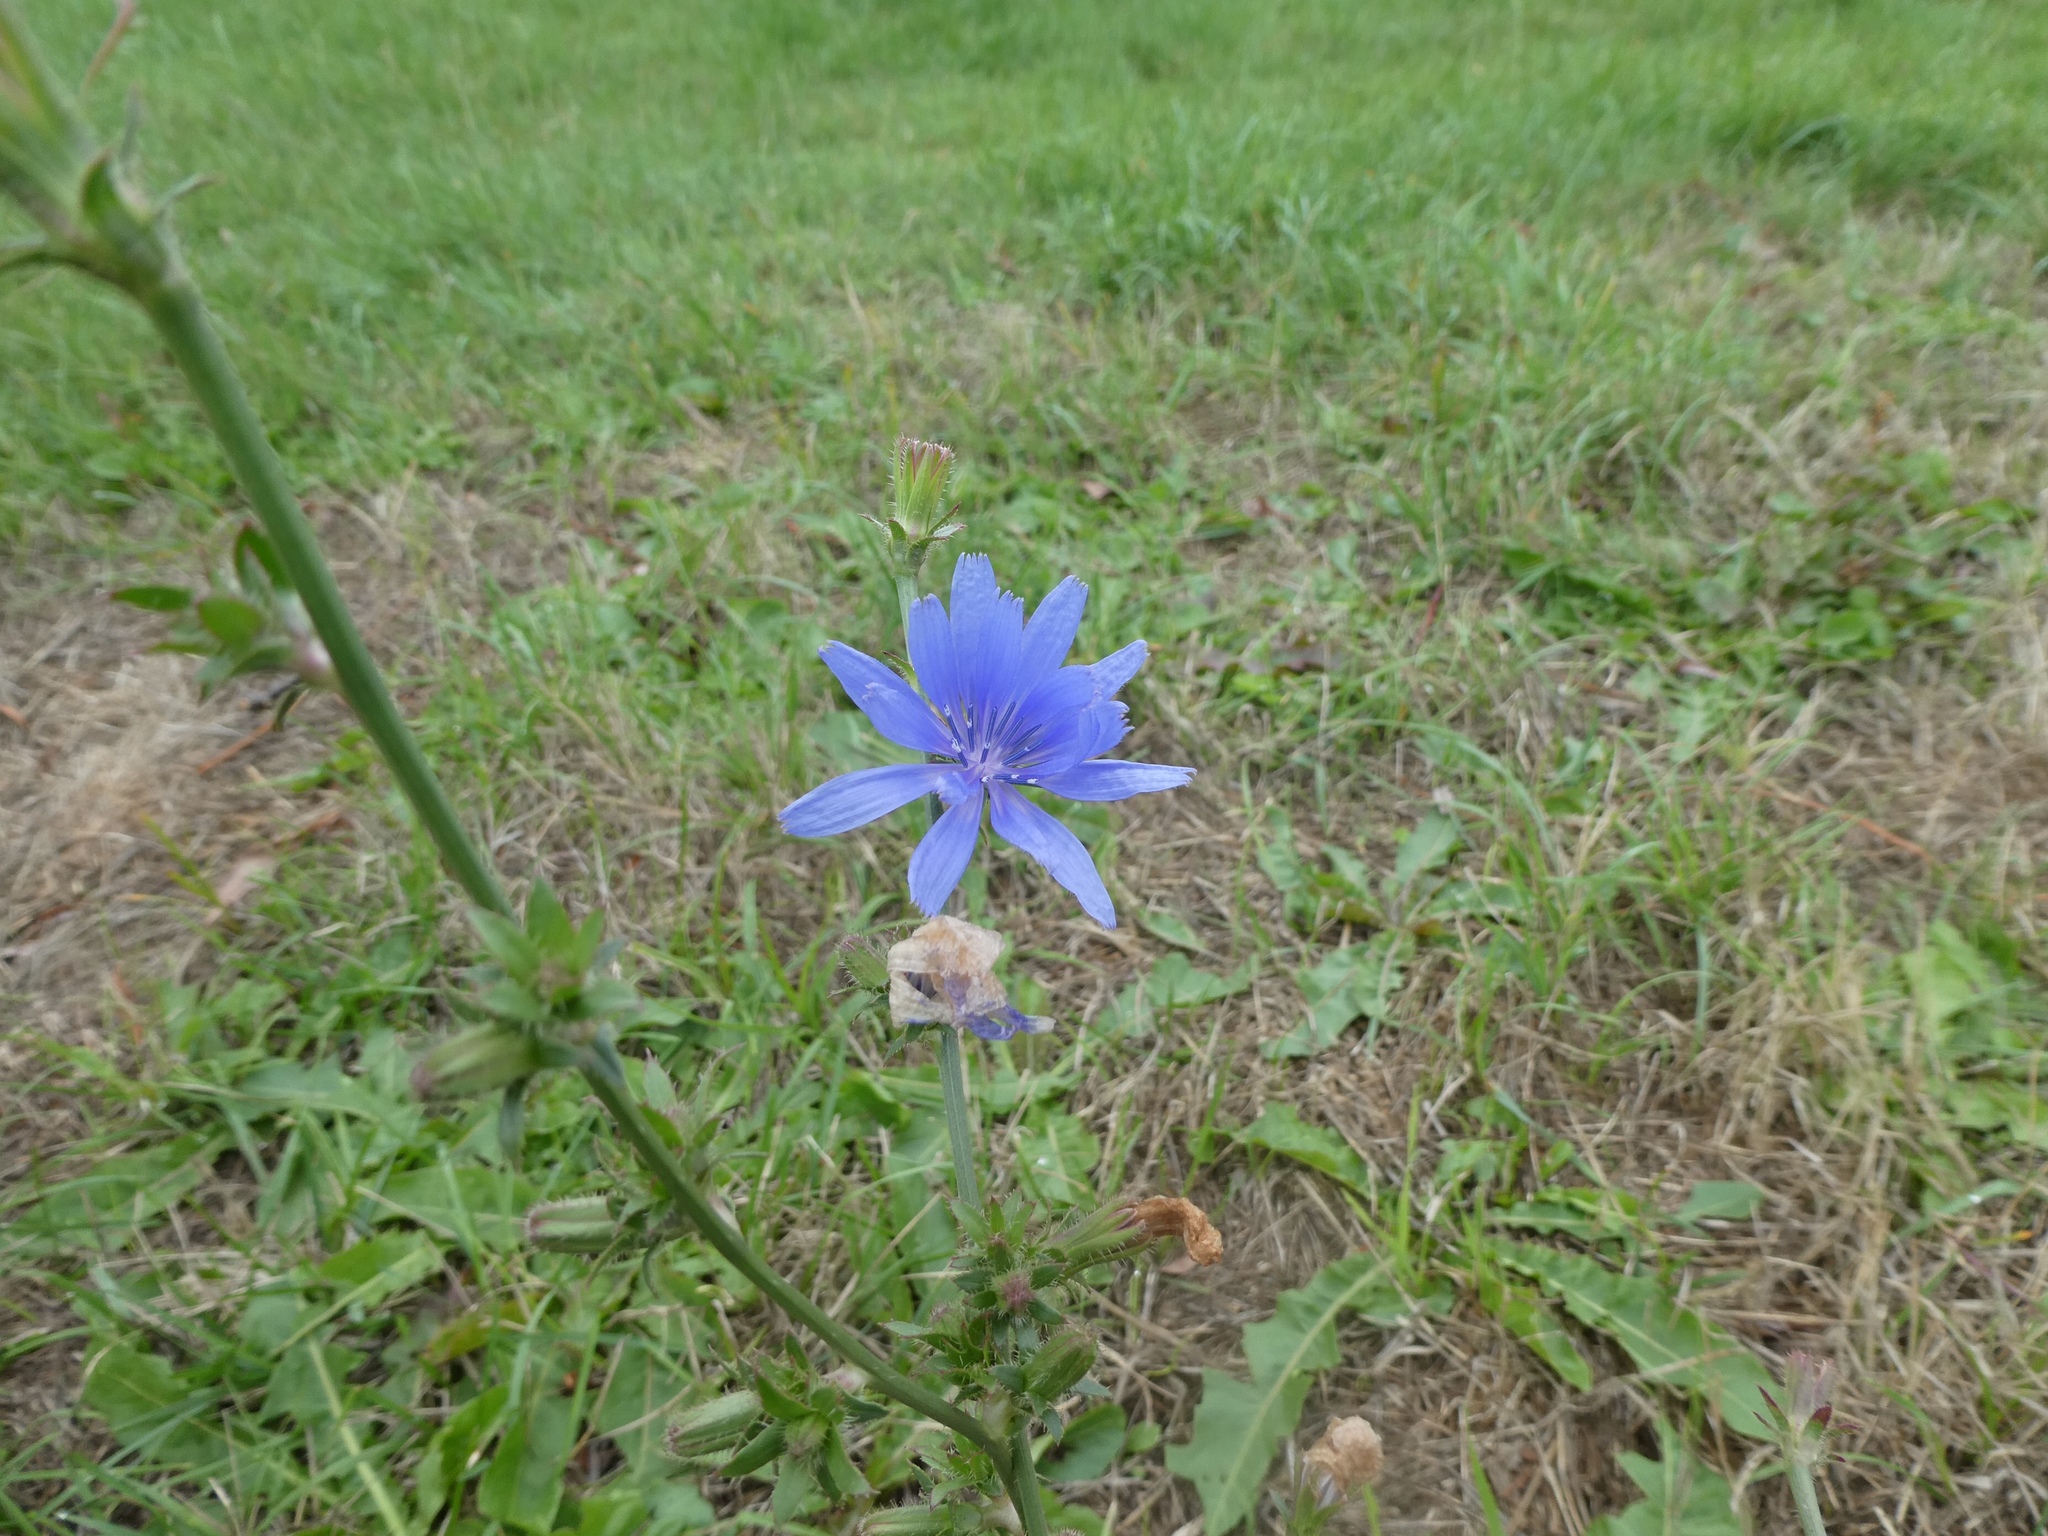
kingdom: Plantae
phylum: Tracheophyta
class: Magnoliopsida
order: Asterales
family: Asteraceae
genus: Cichorium
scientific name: Cichorium intybus
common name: Chicory
